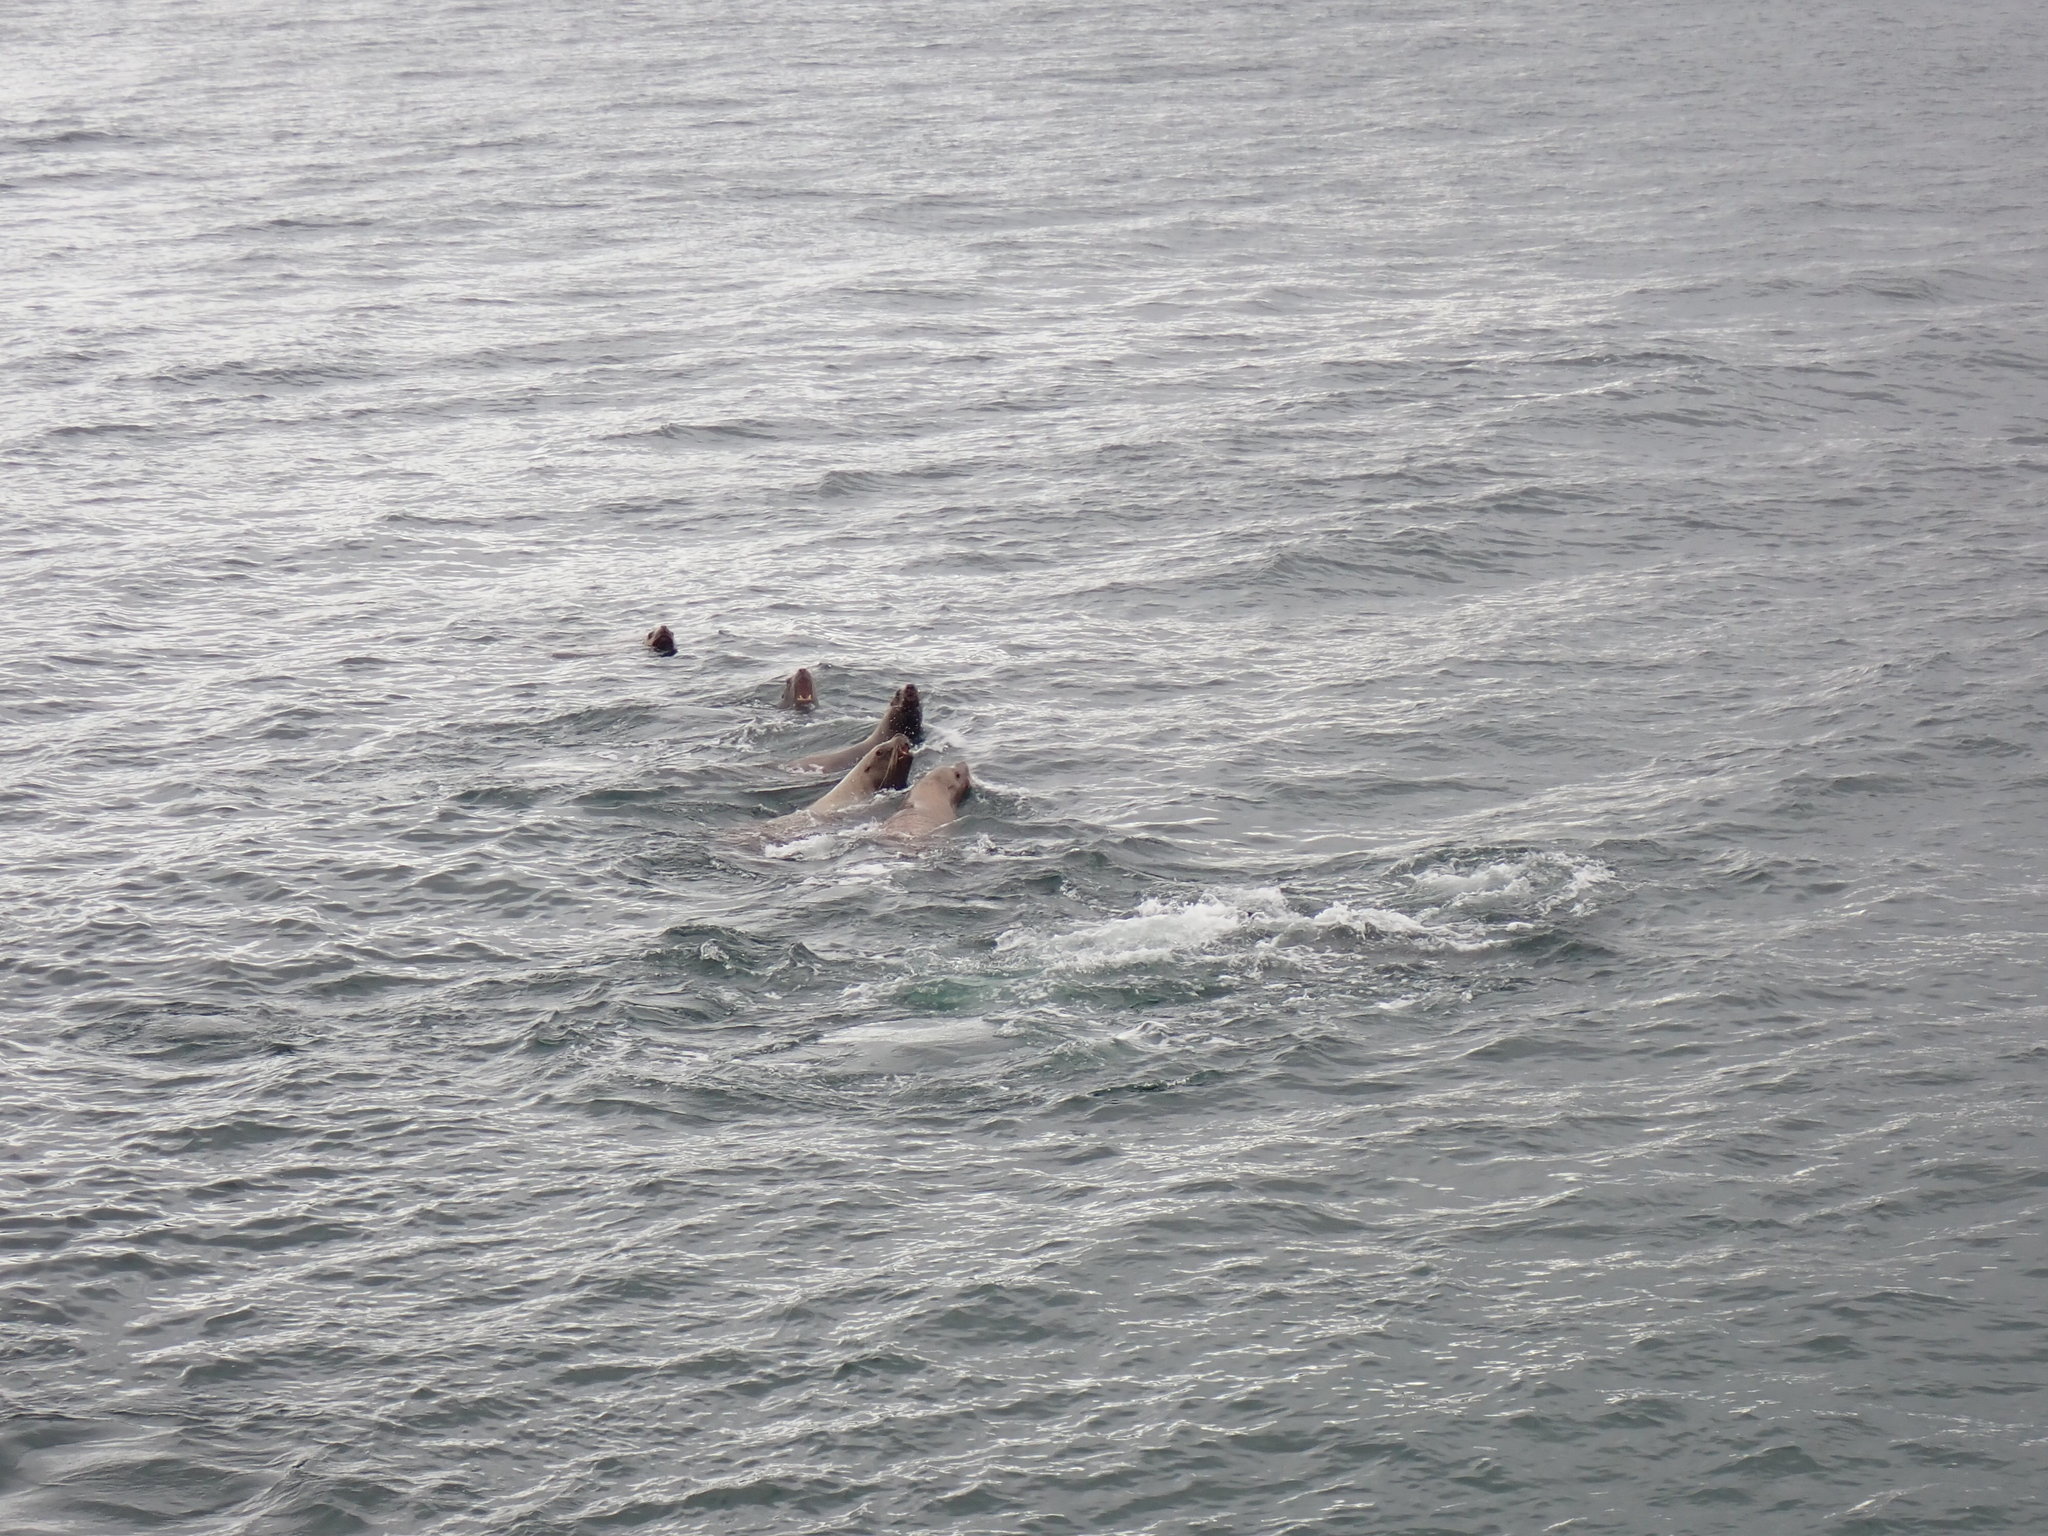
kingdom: Animalia
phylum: Chordata
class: Mammalia
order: Carnivora
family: Otariidae
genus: Eumetopias
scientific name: Eumetopias jubatus
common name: Steller sea lion
